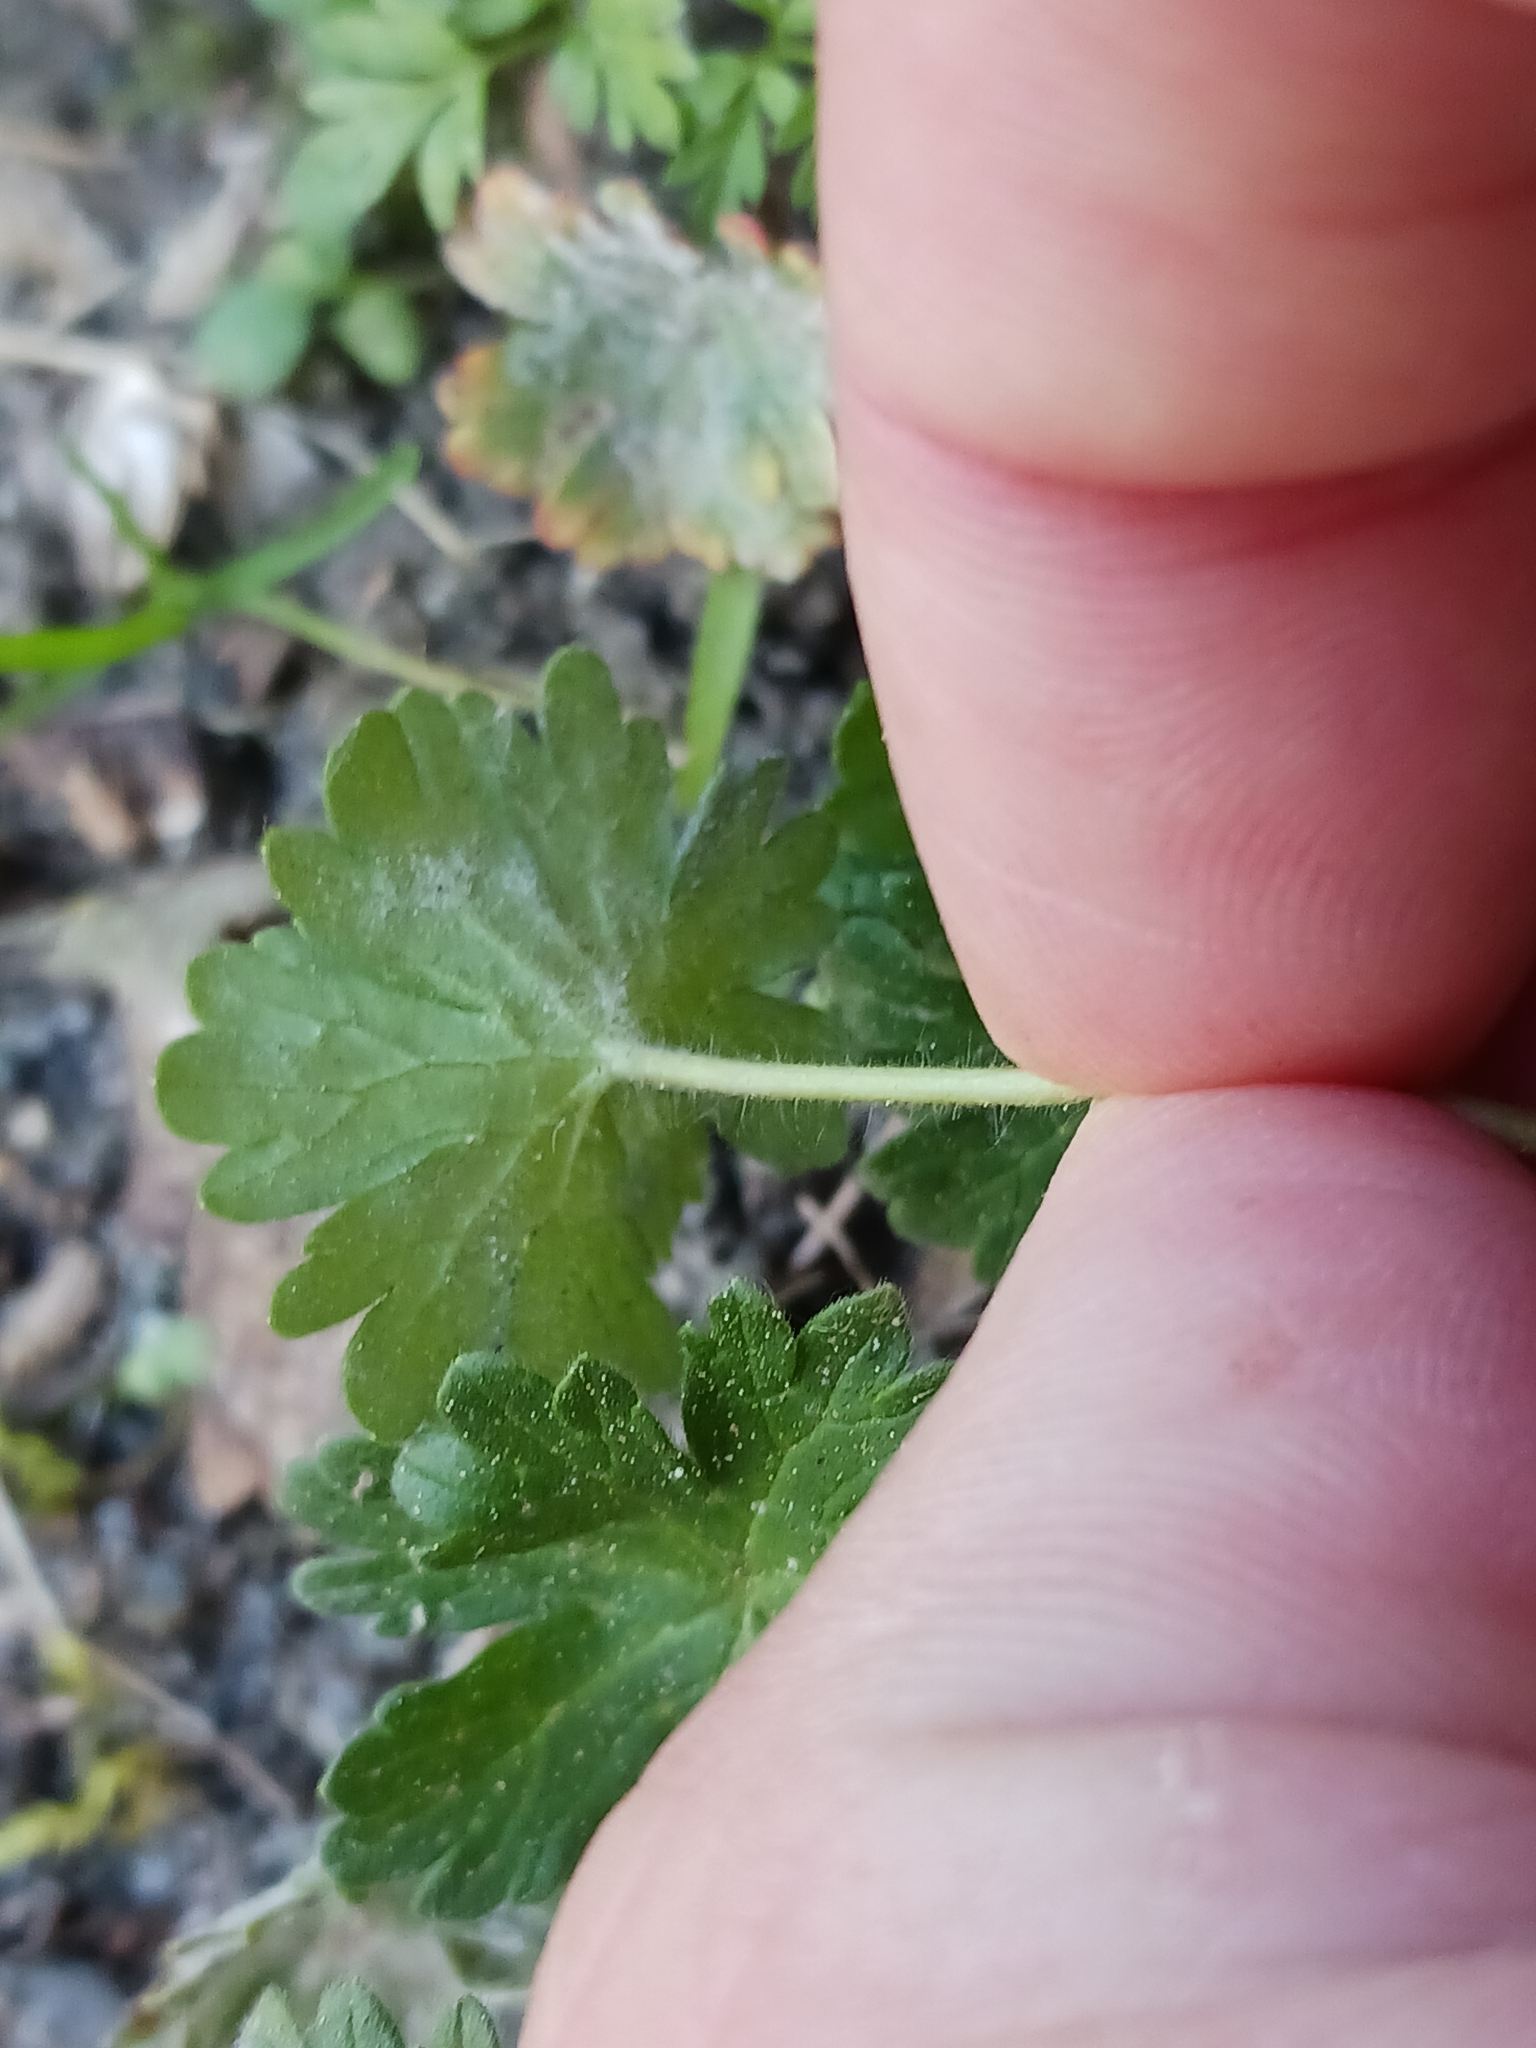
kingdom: Plantae
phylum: Tracheophyta
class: Magnoliopsida
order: Geraniales
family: Geraniaceae
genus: Geranium
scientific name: Geranium molle
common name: Dove's-foot crane's-bill
